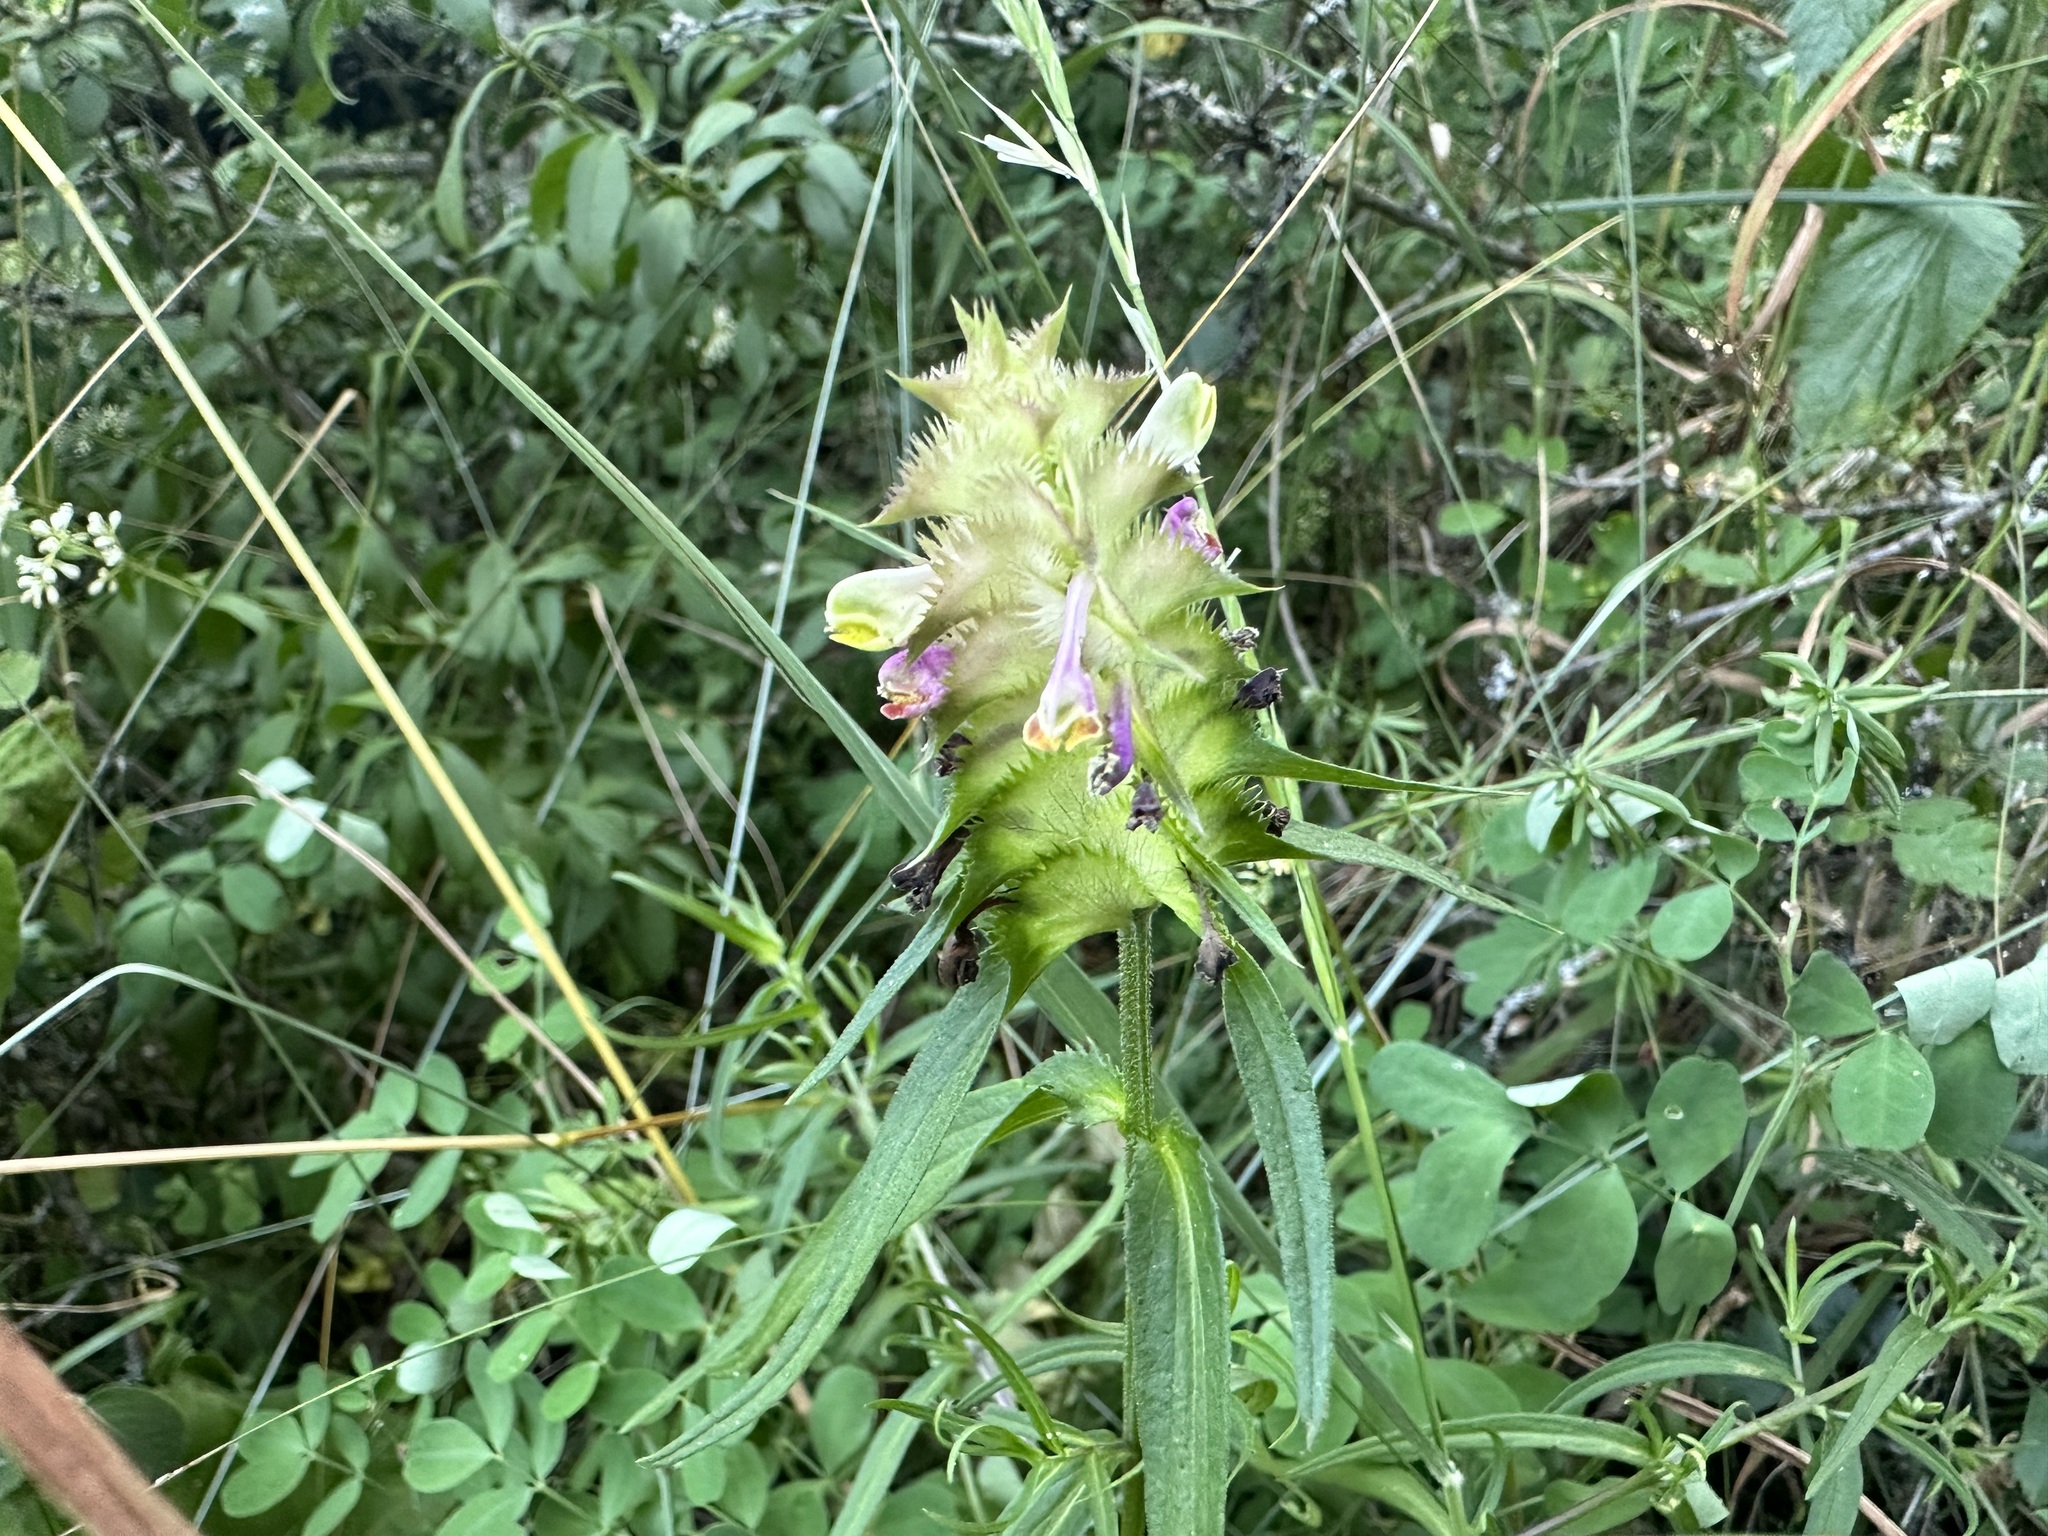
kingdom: Plantae
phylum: Tracheophyta
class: Magnoliopsida
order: Lamiales
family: Orobanchaceae
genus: Melampyrum
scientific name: Melampyrum cristatum
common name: Crested cow-wheat
